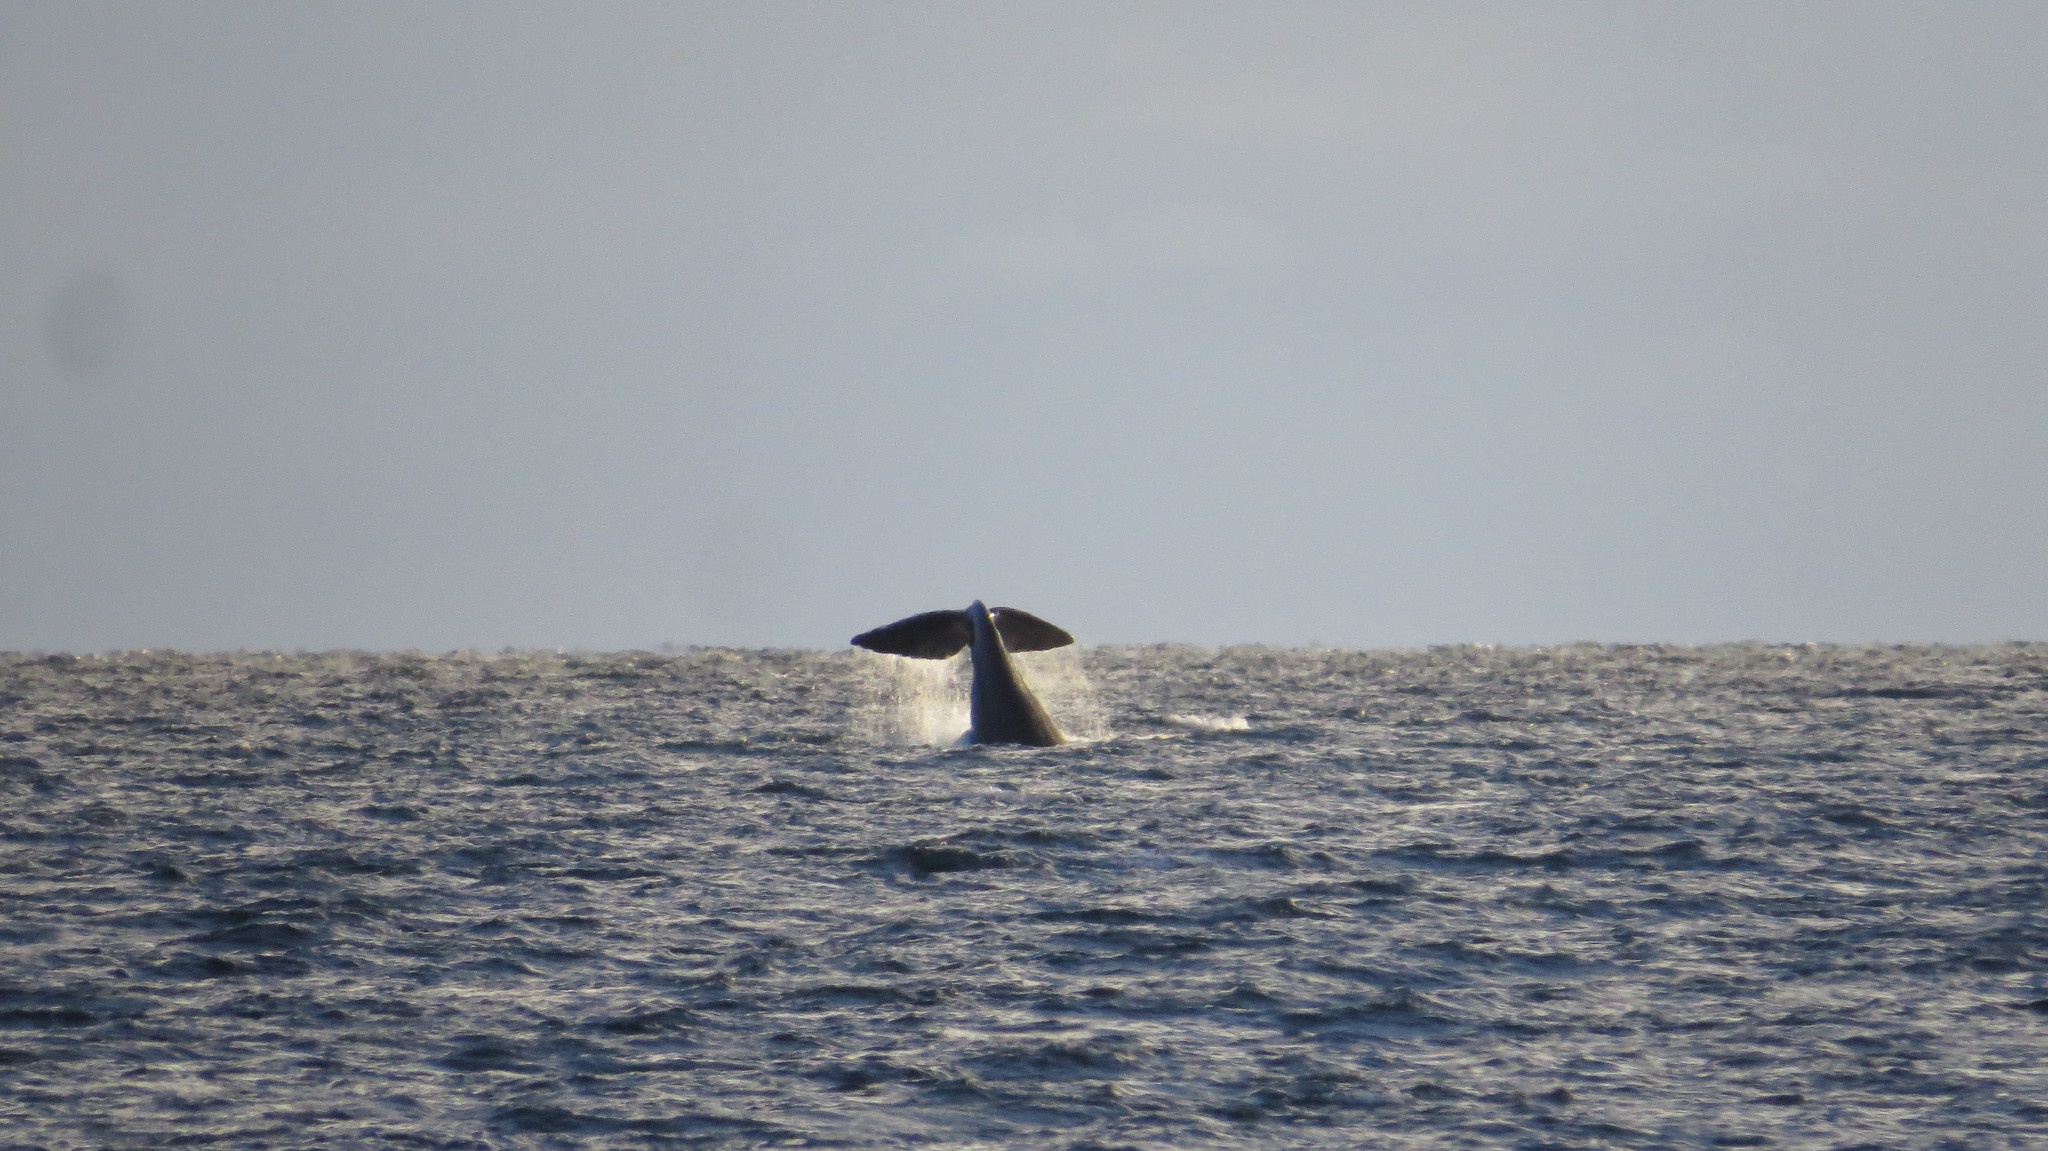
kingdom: Animalia
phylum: Chordata
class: Mammalia
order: Cetacea
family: Balaenidae
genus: Eubalaena
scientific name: Eubalaena australis
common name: Southern right whale
